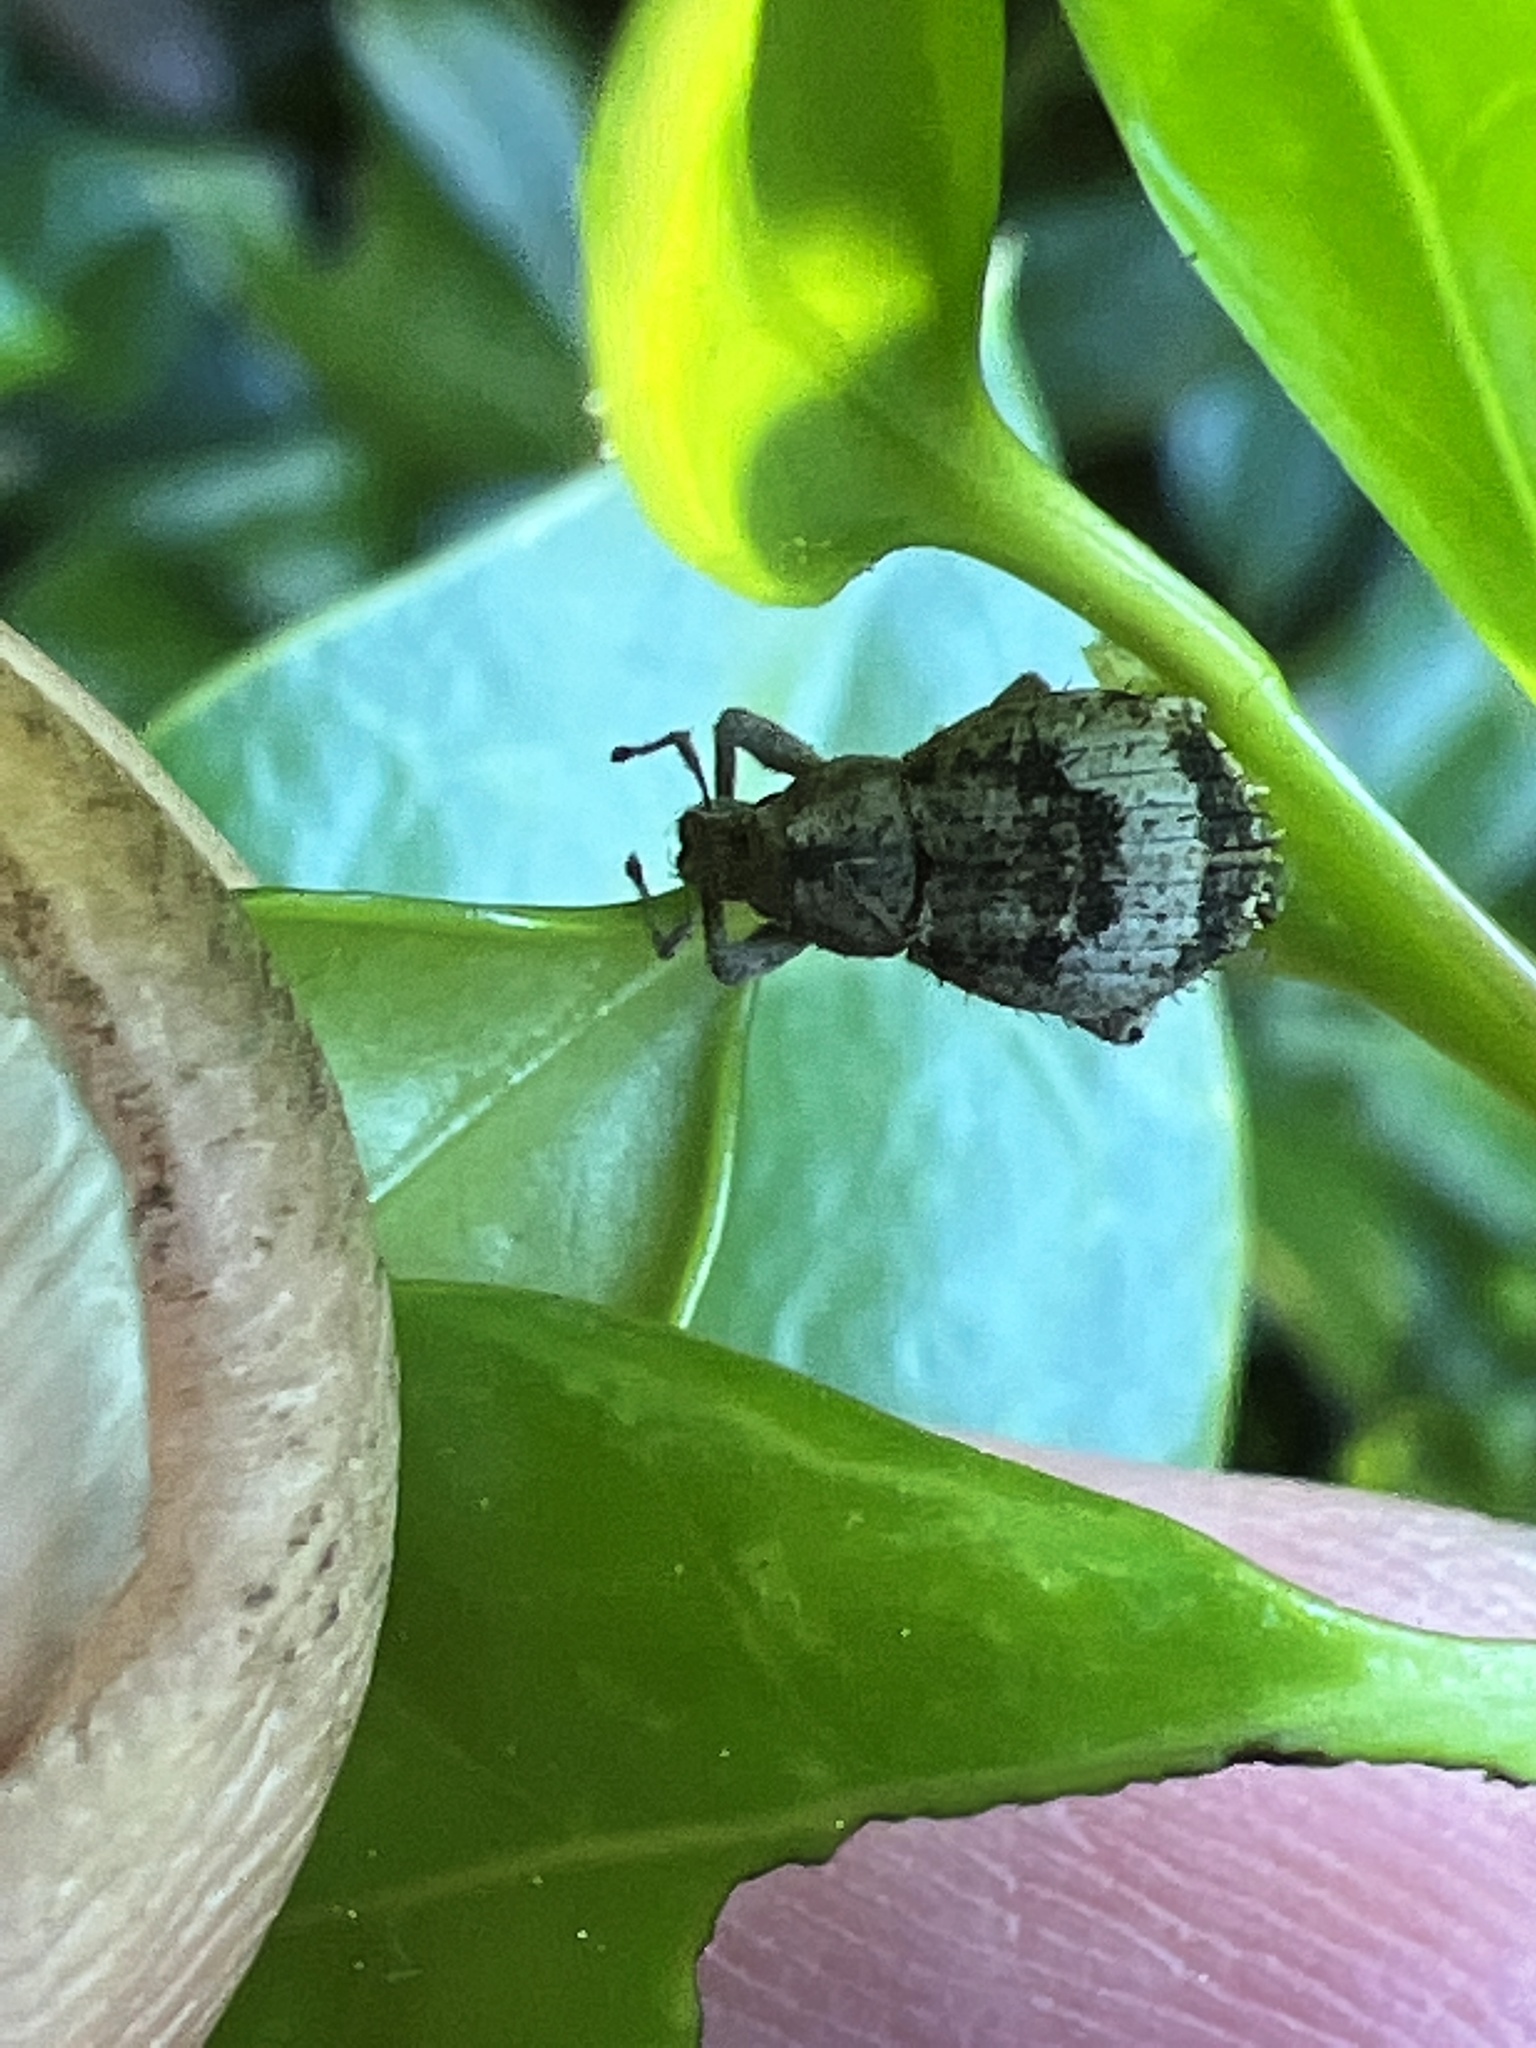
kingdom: Animalia
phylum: Arthropoda
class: Insecta
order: Coleoptera
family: Curculionidae
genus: Pseudocneorhinus
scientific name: Pseudocneorhinus obesus
